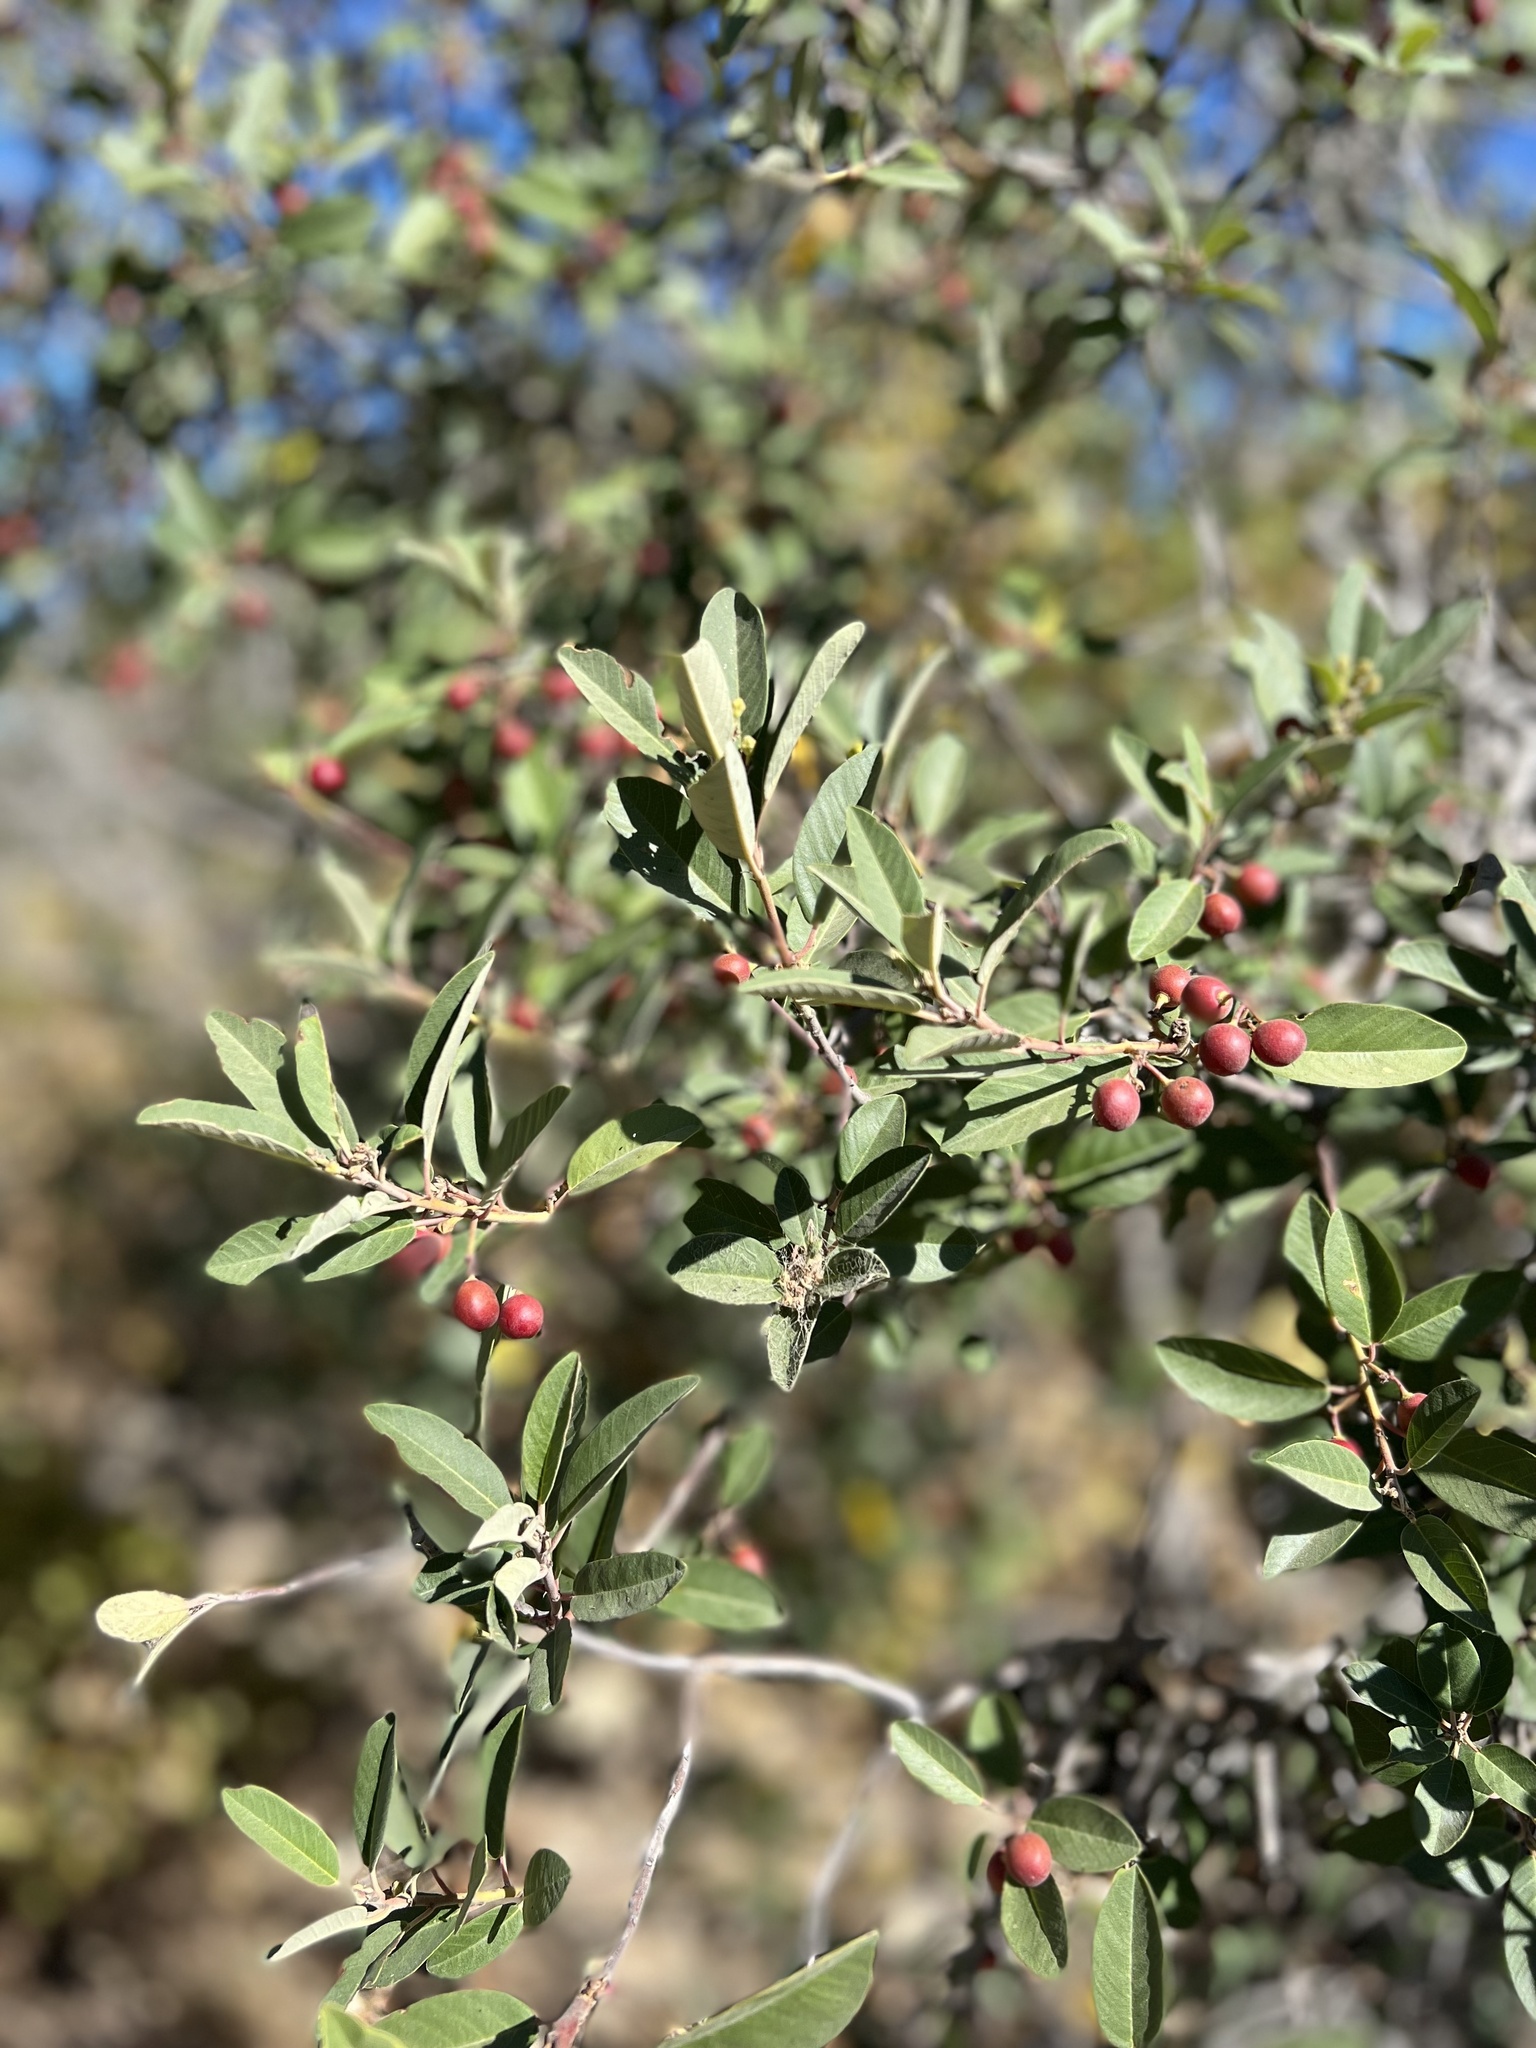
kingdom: Plantae
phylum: Tracheophyta
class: Magnoliopsida
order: Rosales
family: Rhamnaceae
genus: Frangula
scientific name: Frangula californica
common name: California buckthorn
